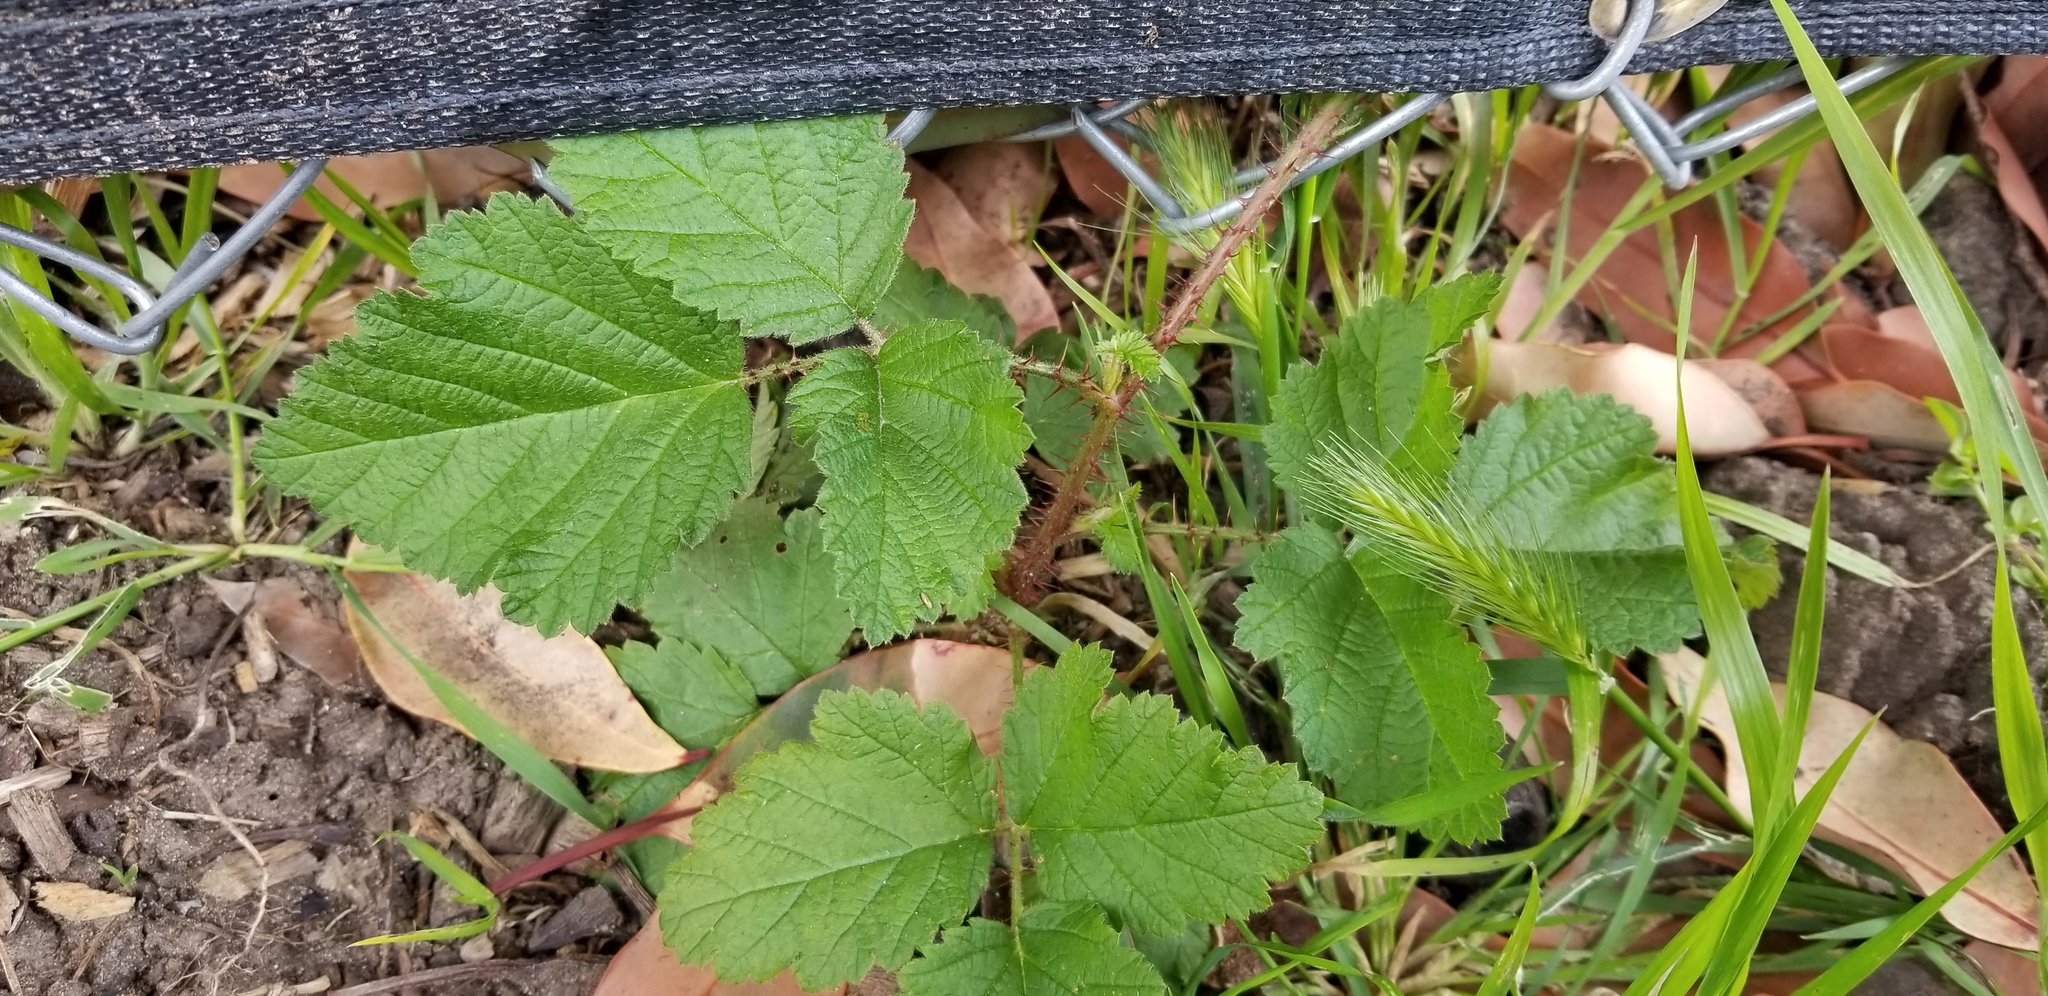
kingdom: Plantae
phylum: Tracheophyta
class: Magnoliopsida
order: Rosales
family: Rosaceae
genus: Rubus
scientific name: Rubus ursinus
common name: Pacific blackberry
